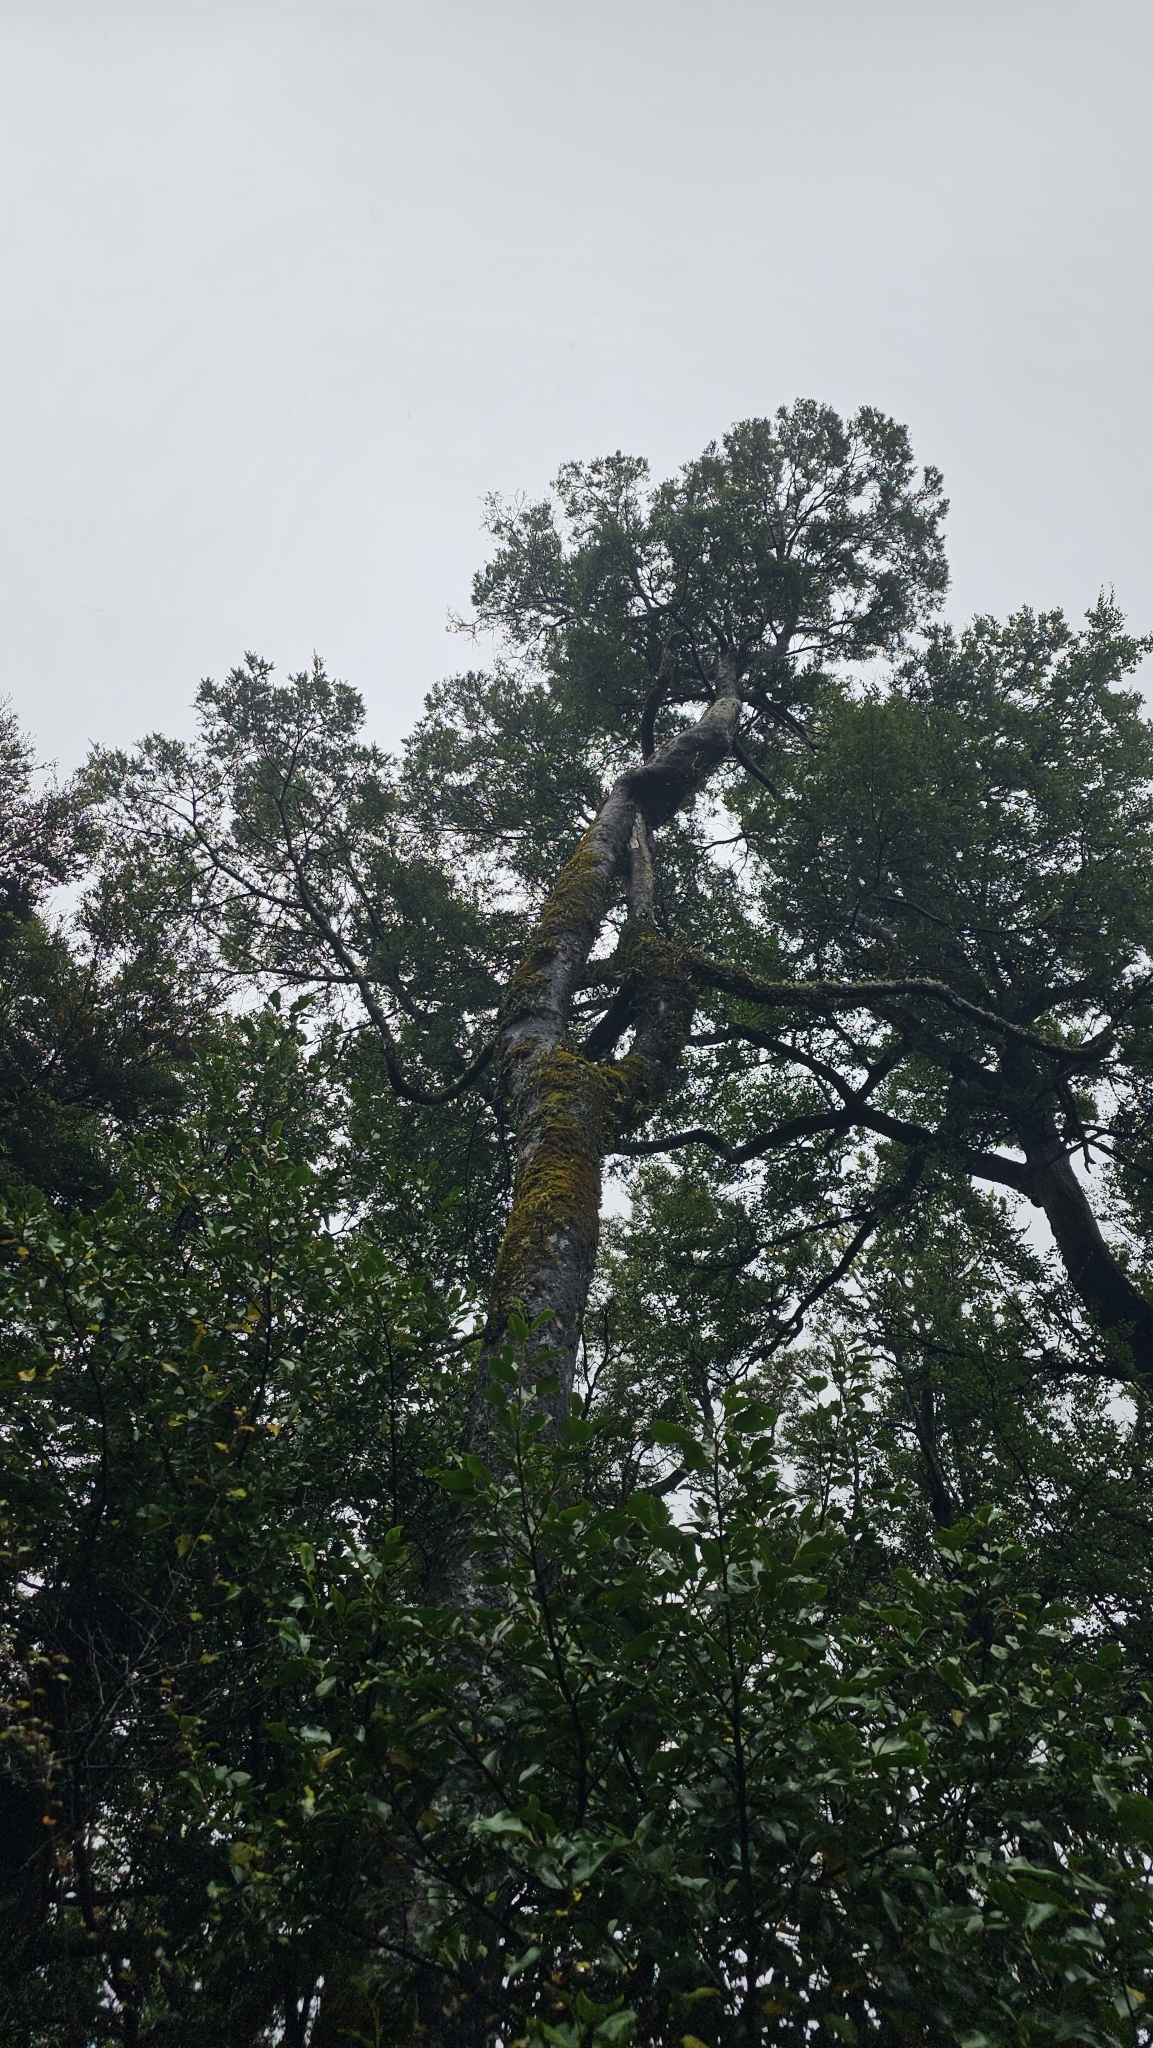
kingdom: Plantae
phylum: Tracheophyta
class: Pinopsida
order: Pinales
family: Podocarpaceae
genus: Prumnopitys
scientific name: Prumnopitys ferruginea
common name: Brown pine
